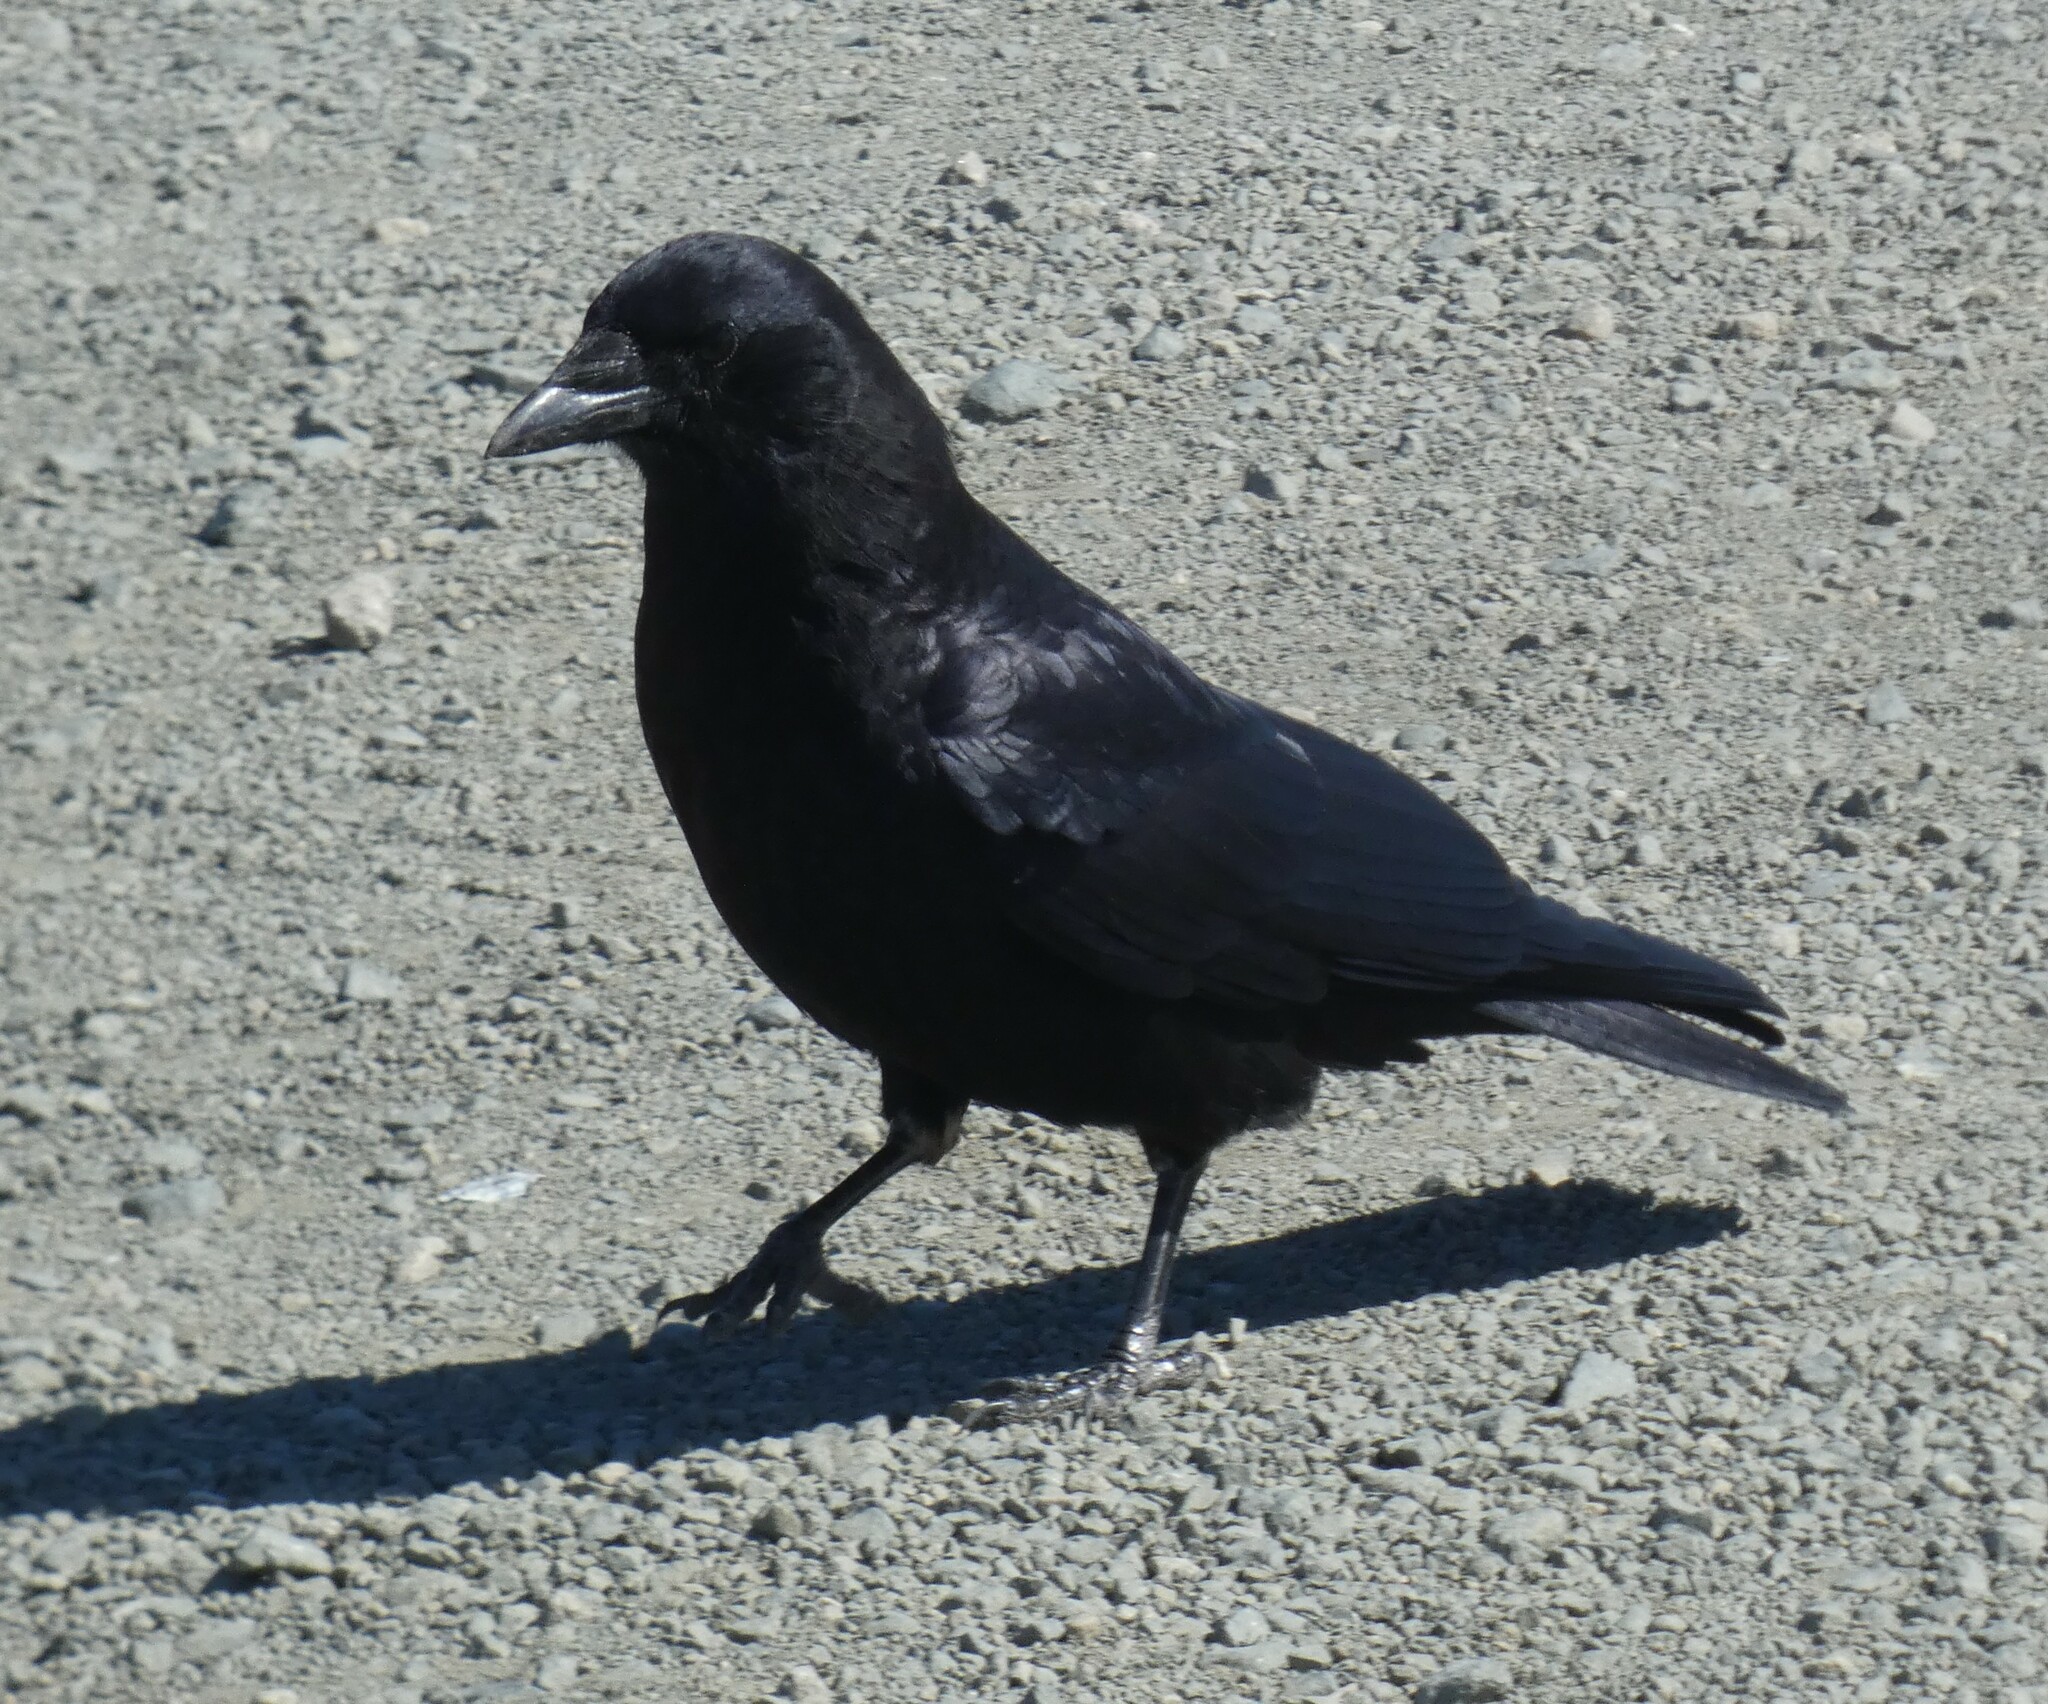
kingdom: Animalia
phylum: Chordata
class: Aves
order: Passeriformes
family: Corvidae
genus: Corvus
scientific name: Corvus brachyrhynchos
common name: American crow
